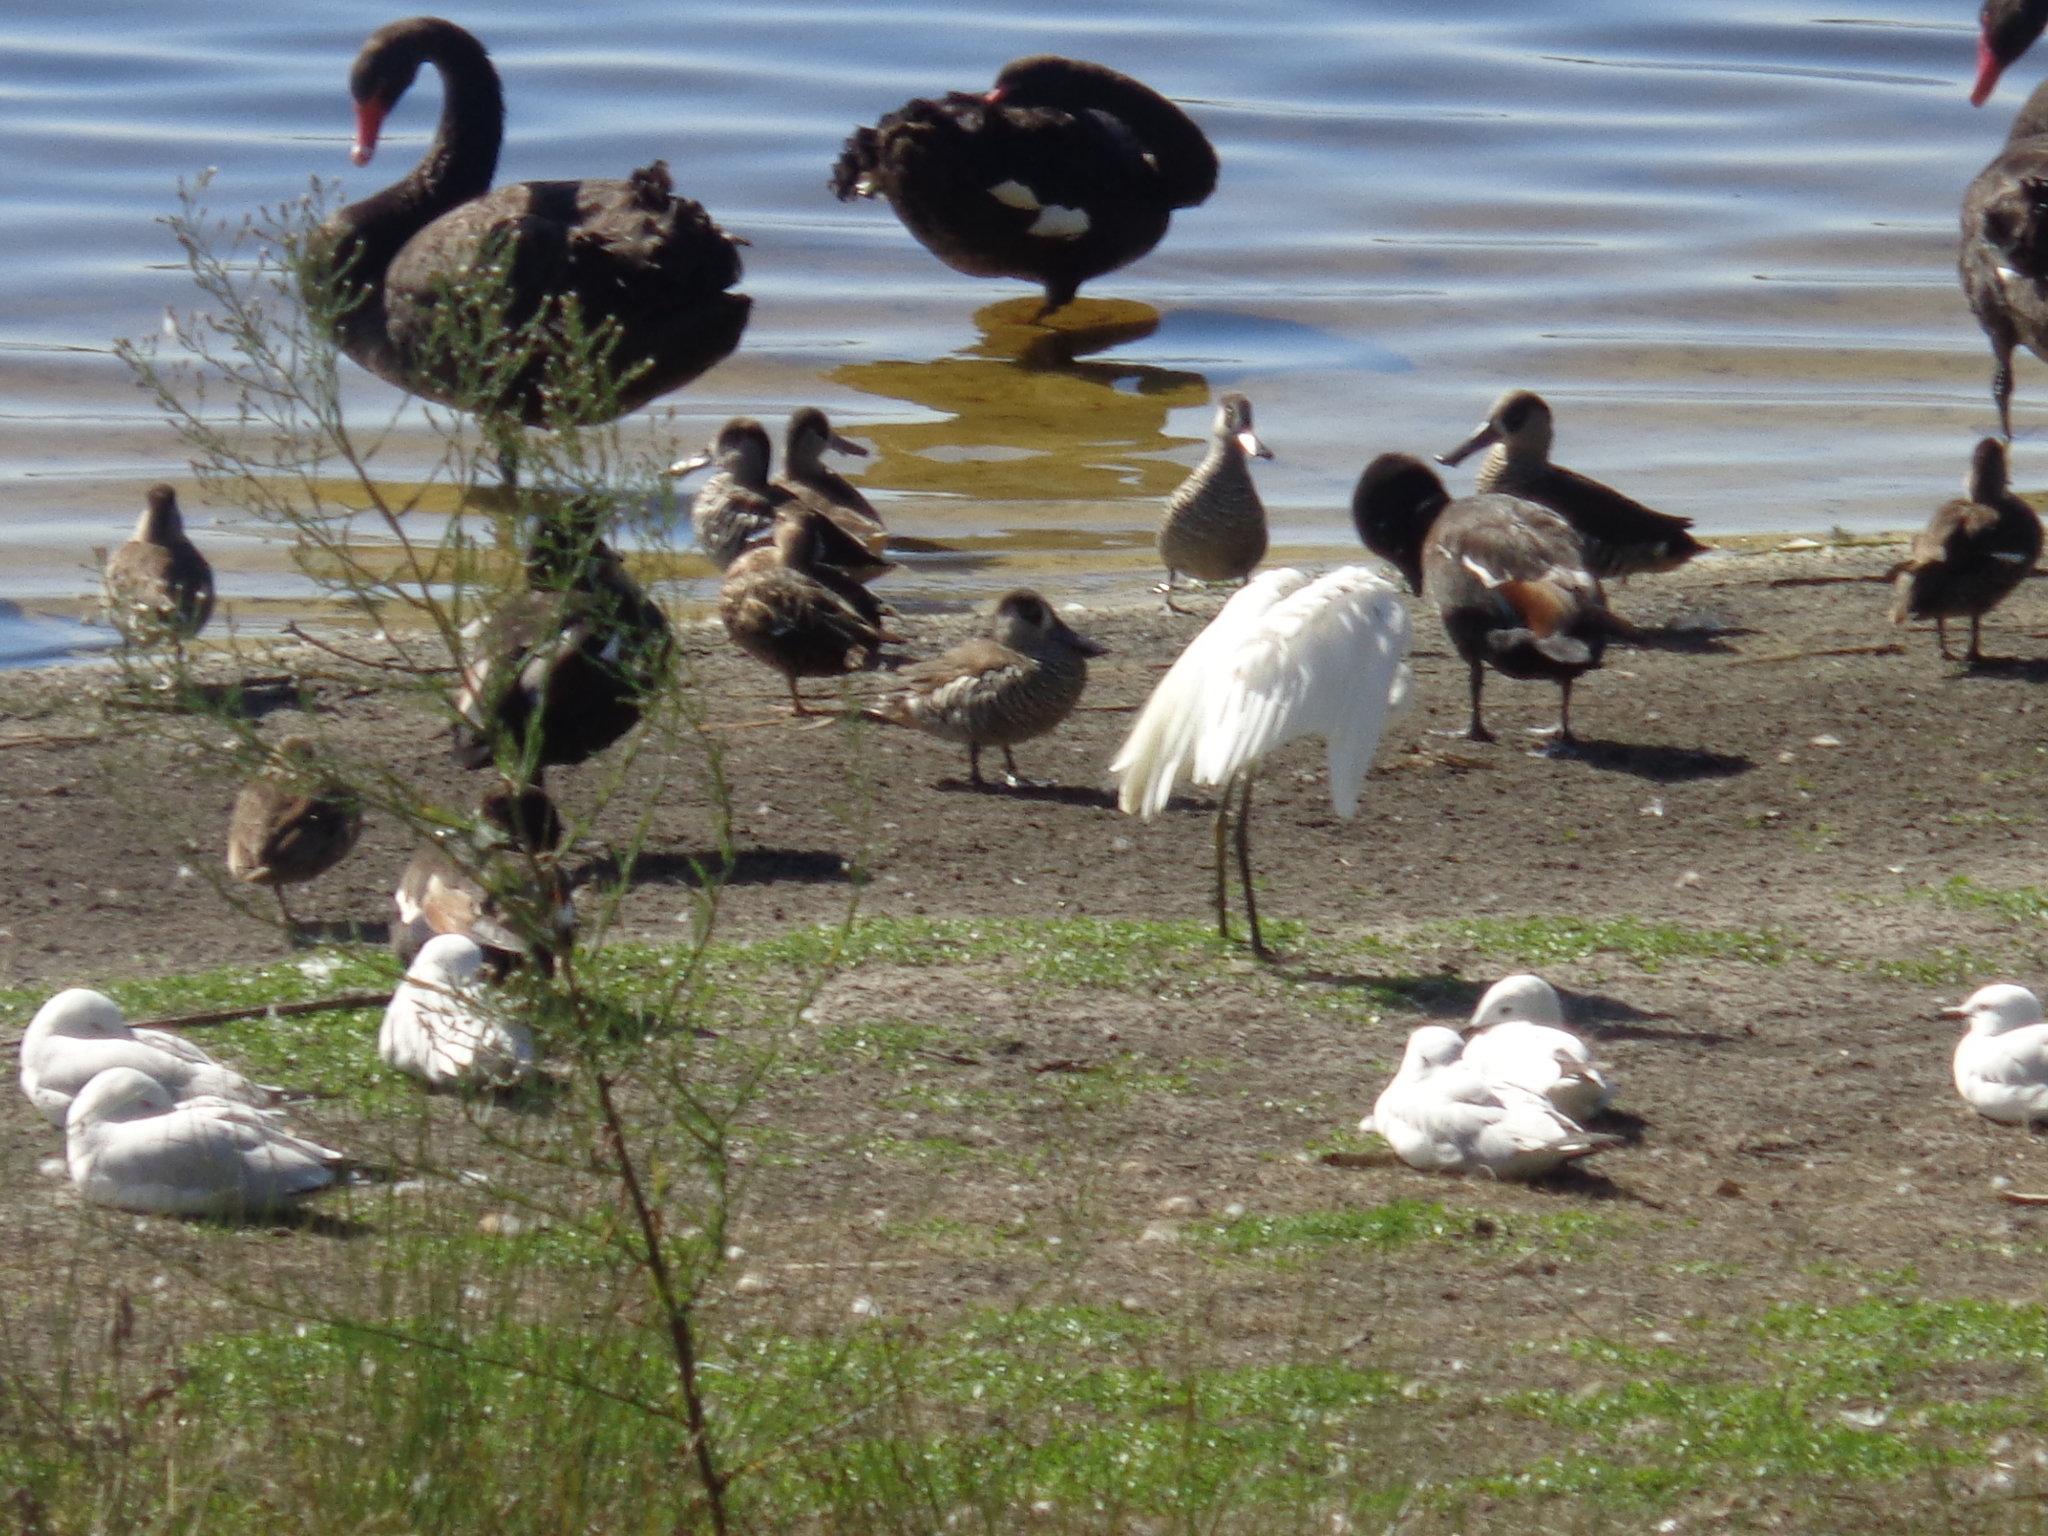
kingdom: Animalia
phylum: Chordata
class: Aves
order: Pelecaniformes
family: Ardeidae
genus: Egretta
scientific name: Egretta garzetta
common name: Little egret
